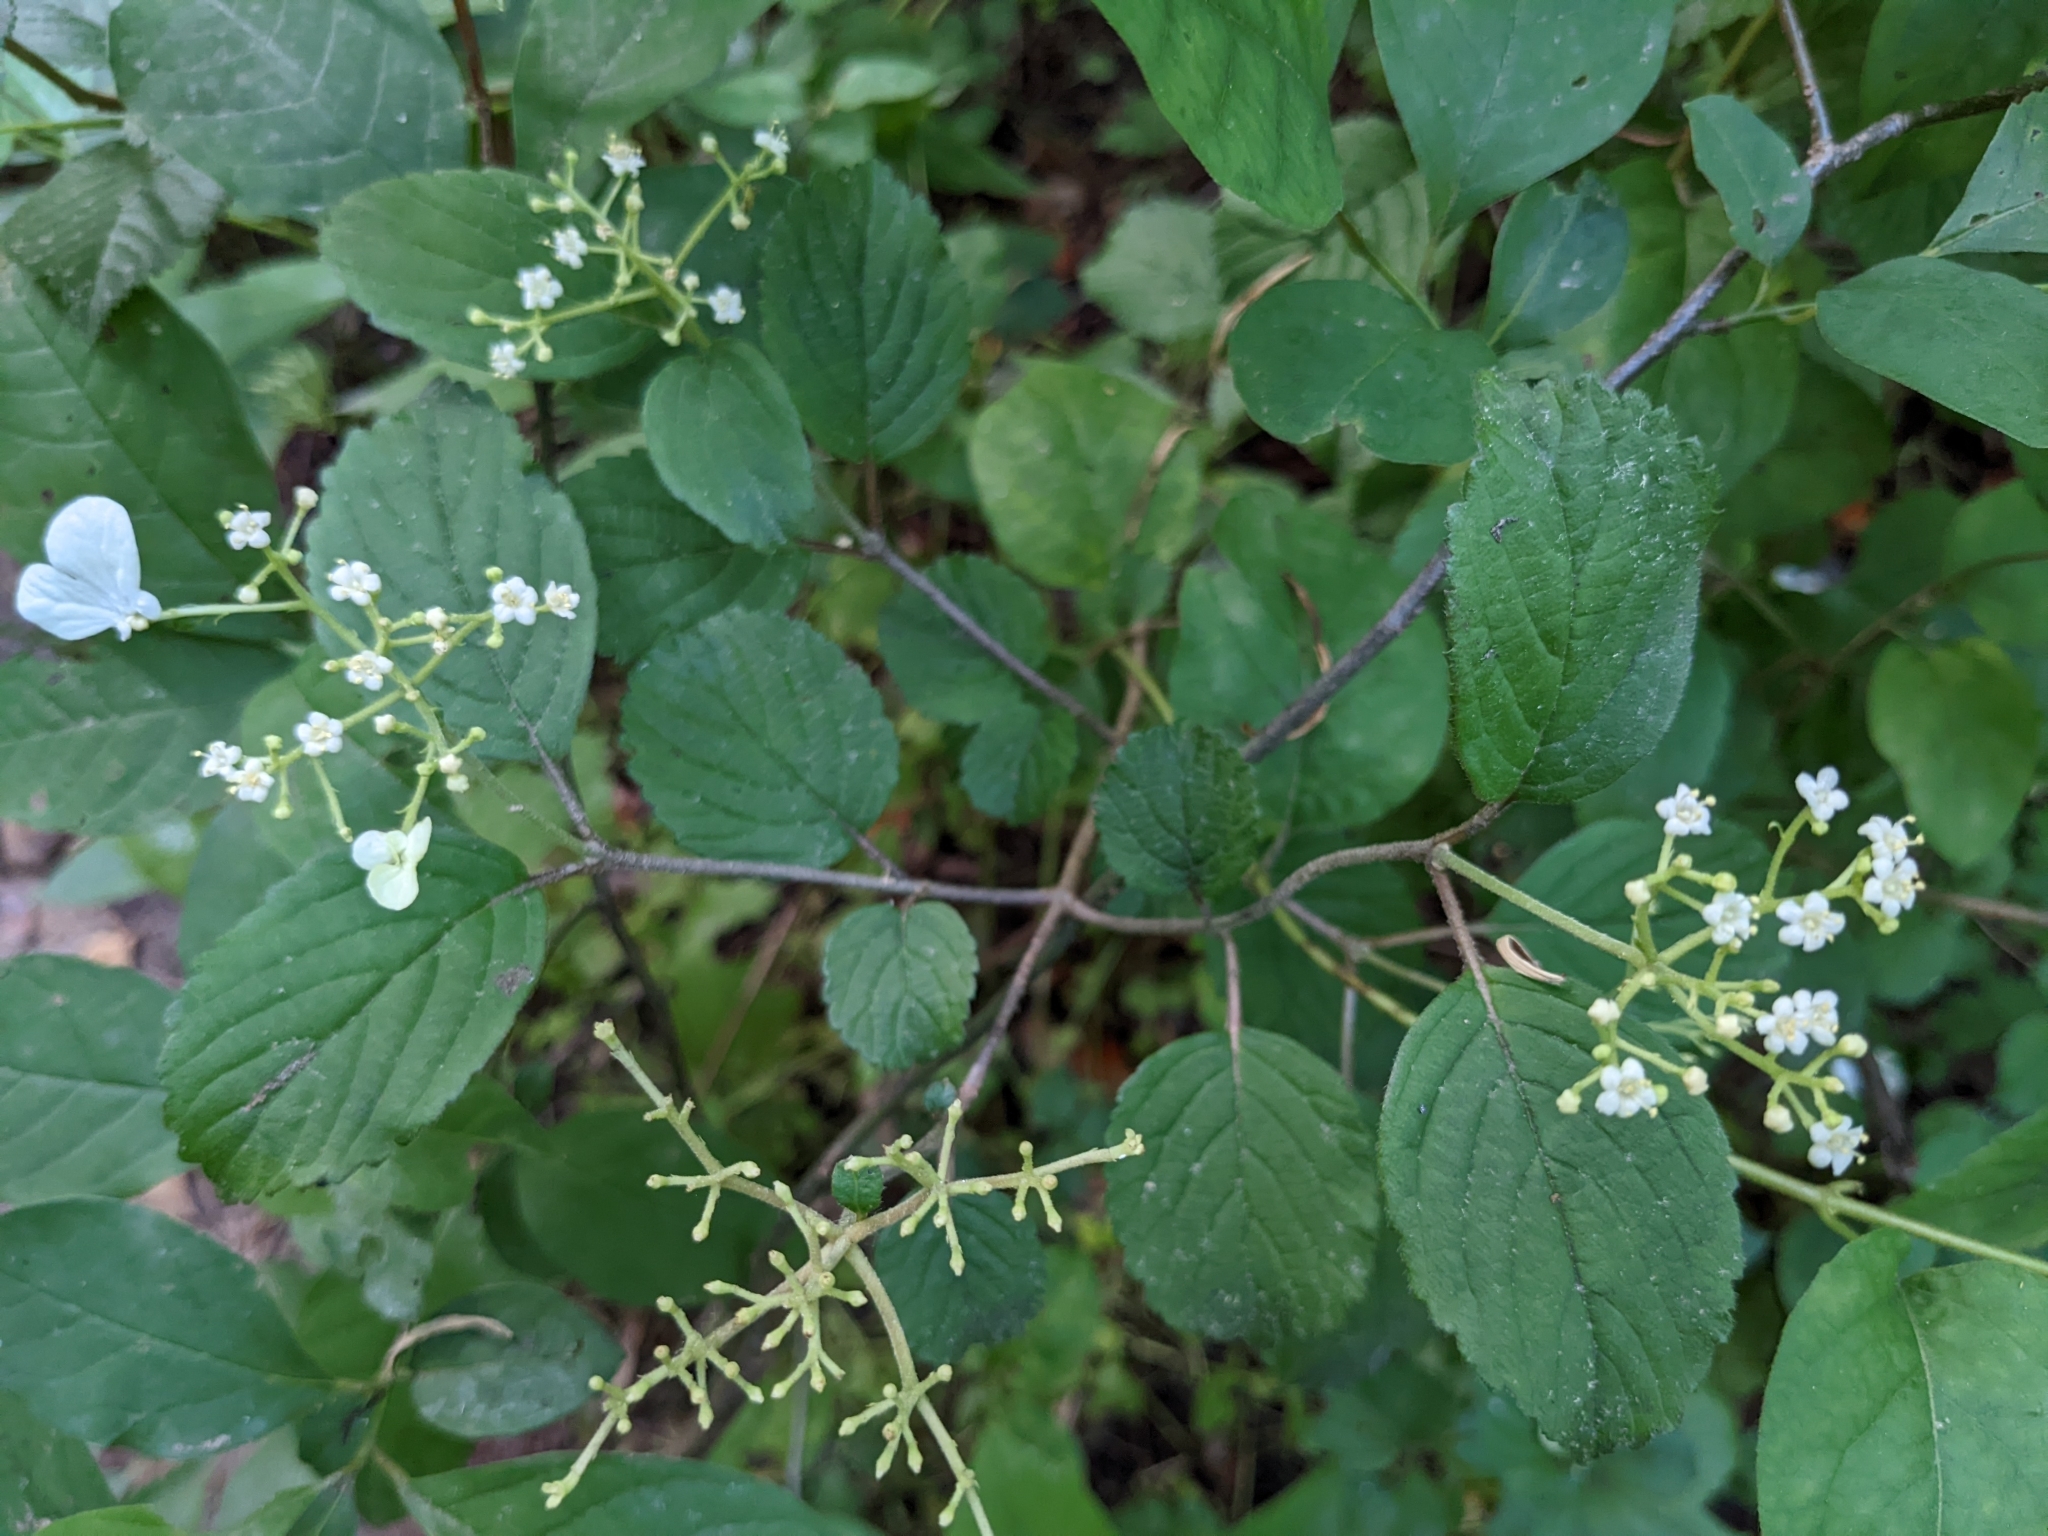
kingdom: Plantae
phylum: Tracheophyta
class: Magnoliopsida
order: Dipsacales
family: Viburnaceae
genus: Viburnum
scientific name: Viburnum plicatum
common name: Japanese snowball
